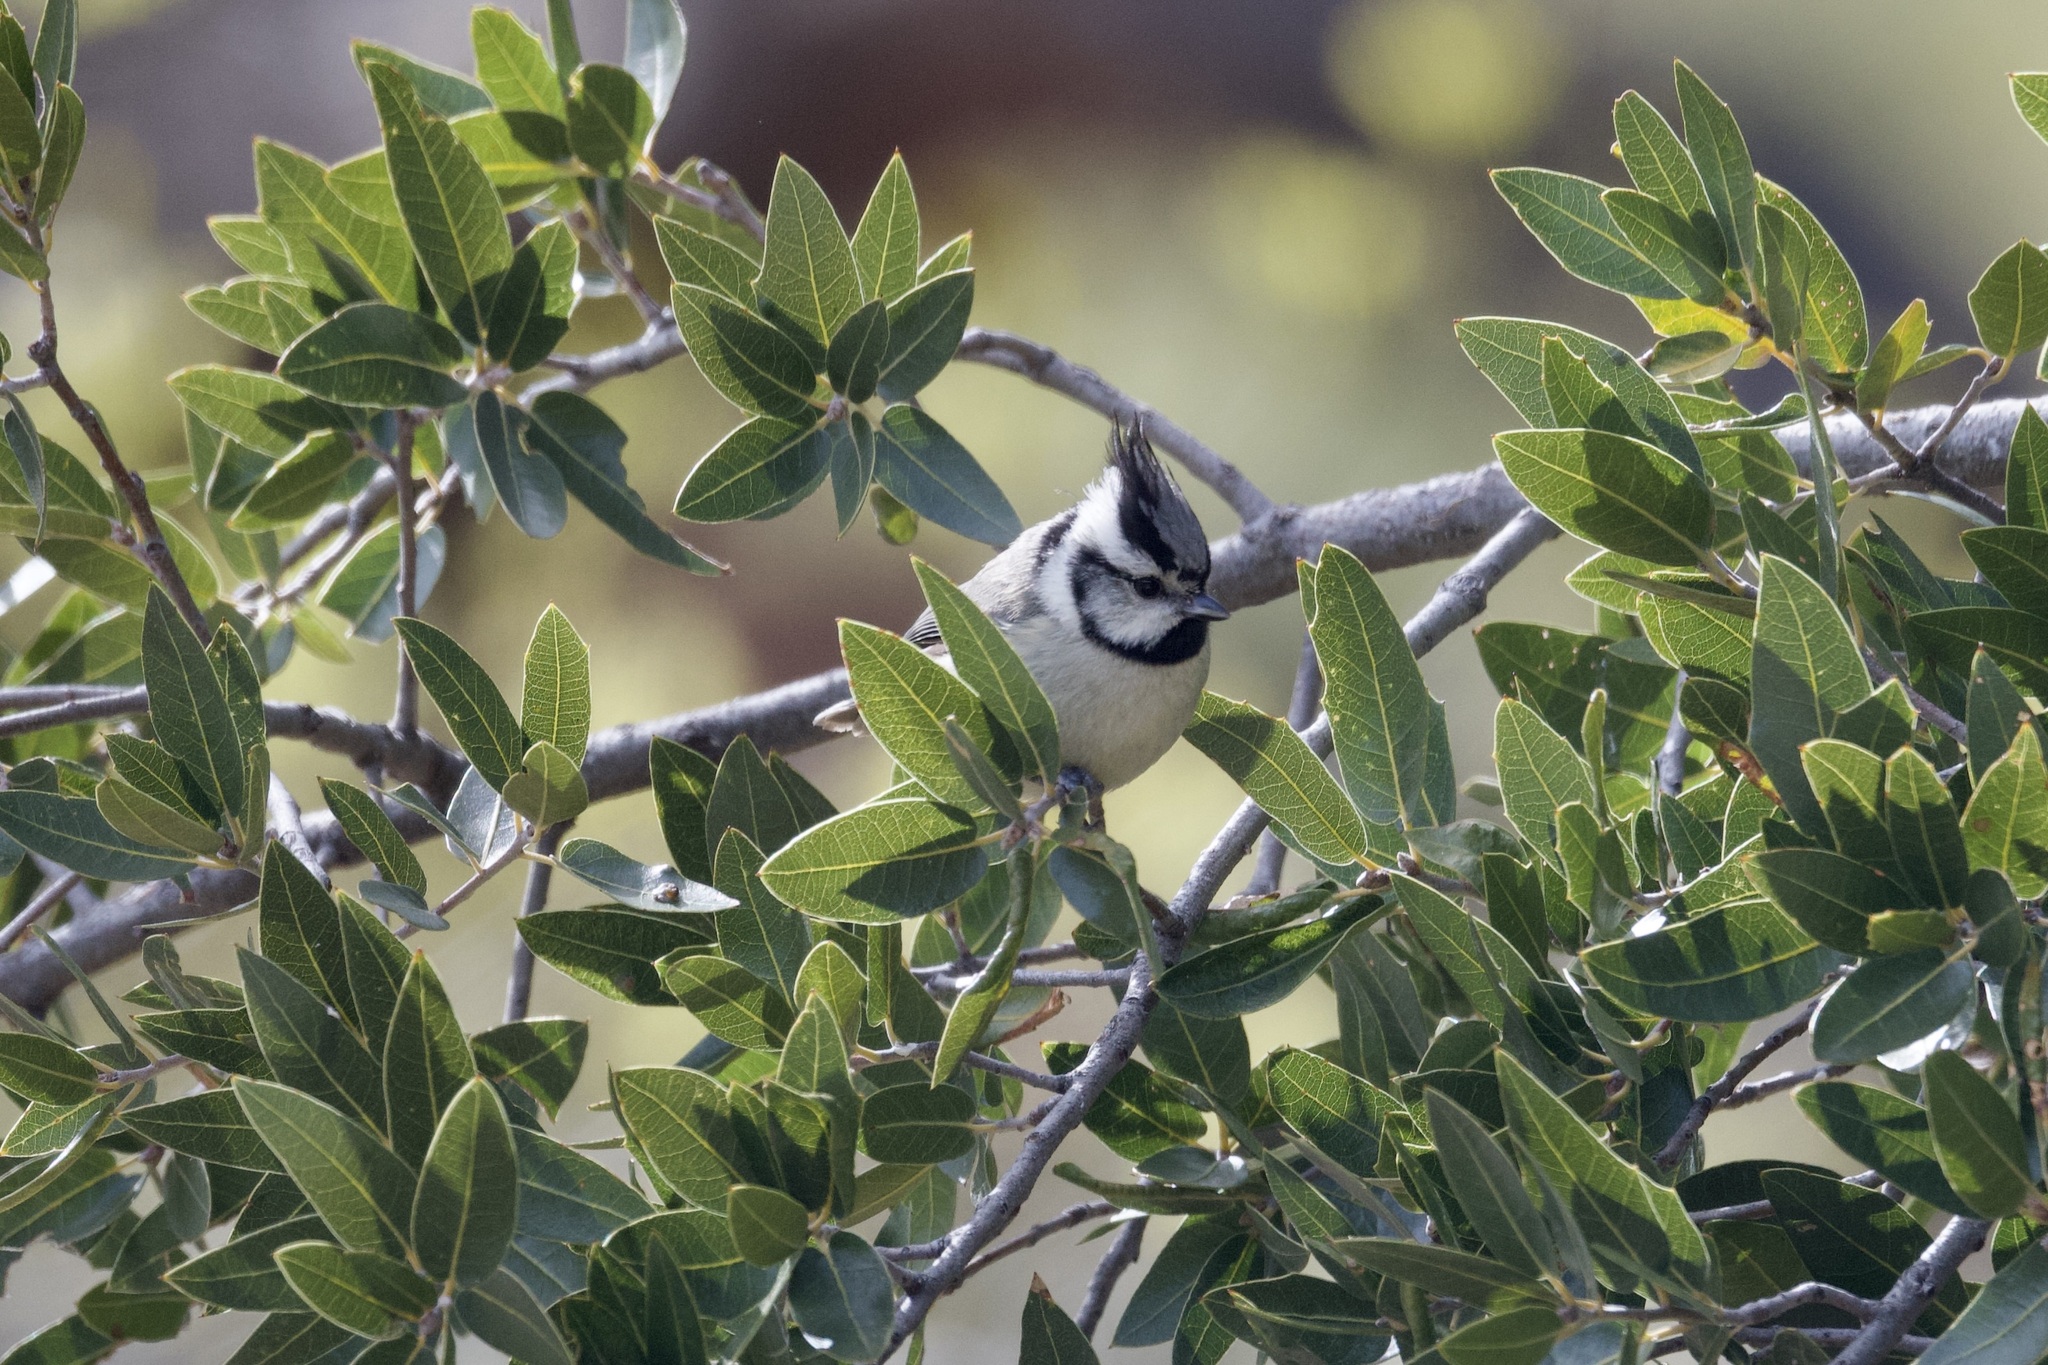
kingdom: Animalia
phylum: Chordata
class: Aves
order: Passeriformes
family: Paridae
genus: Baeolophus
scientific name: Baeolophus wollweberi
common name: Bridled titmouse
